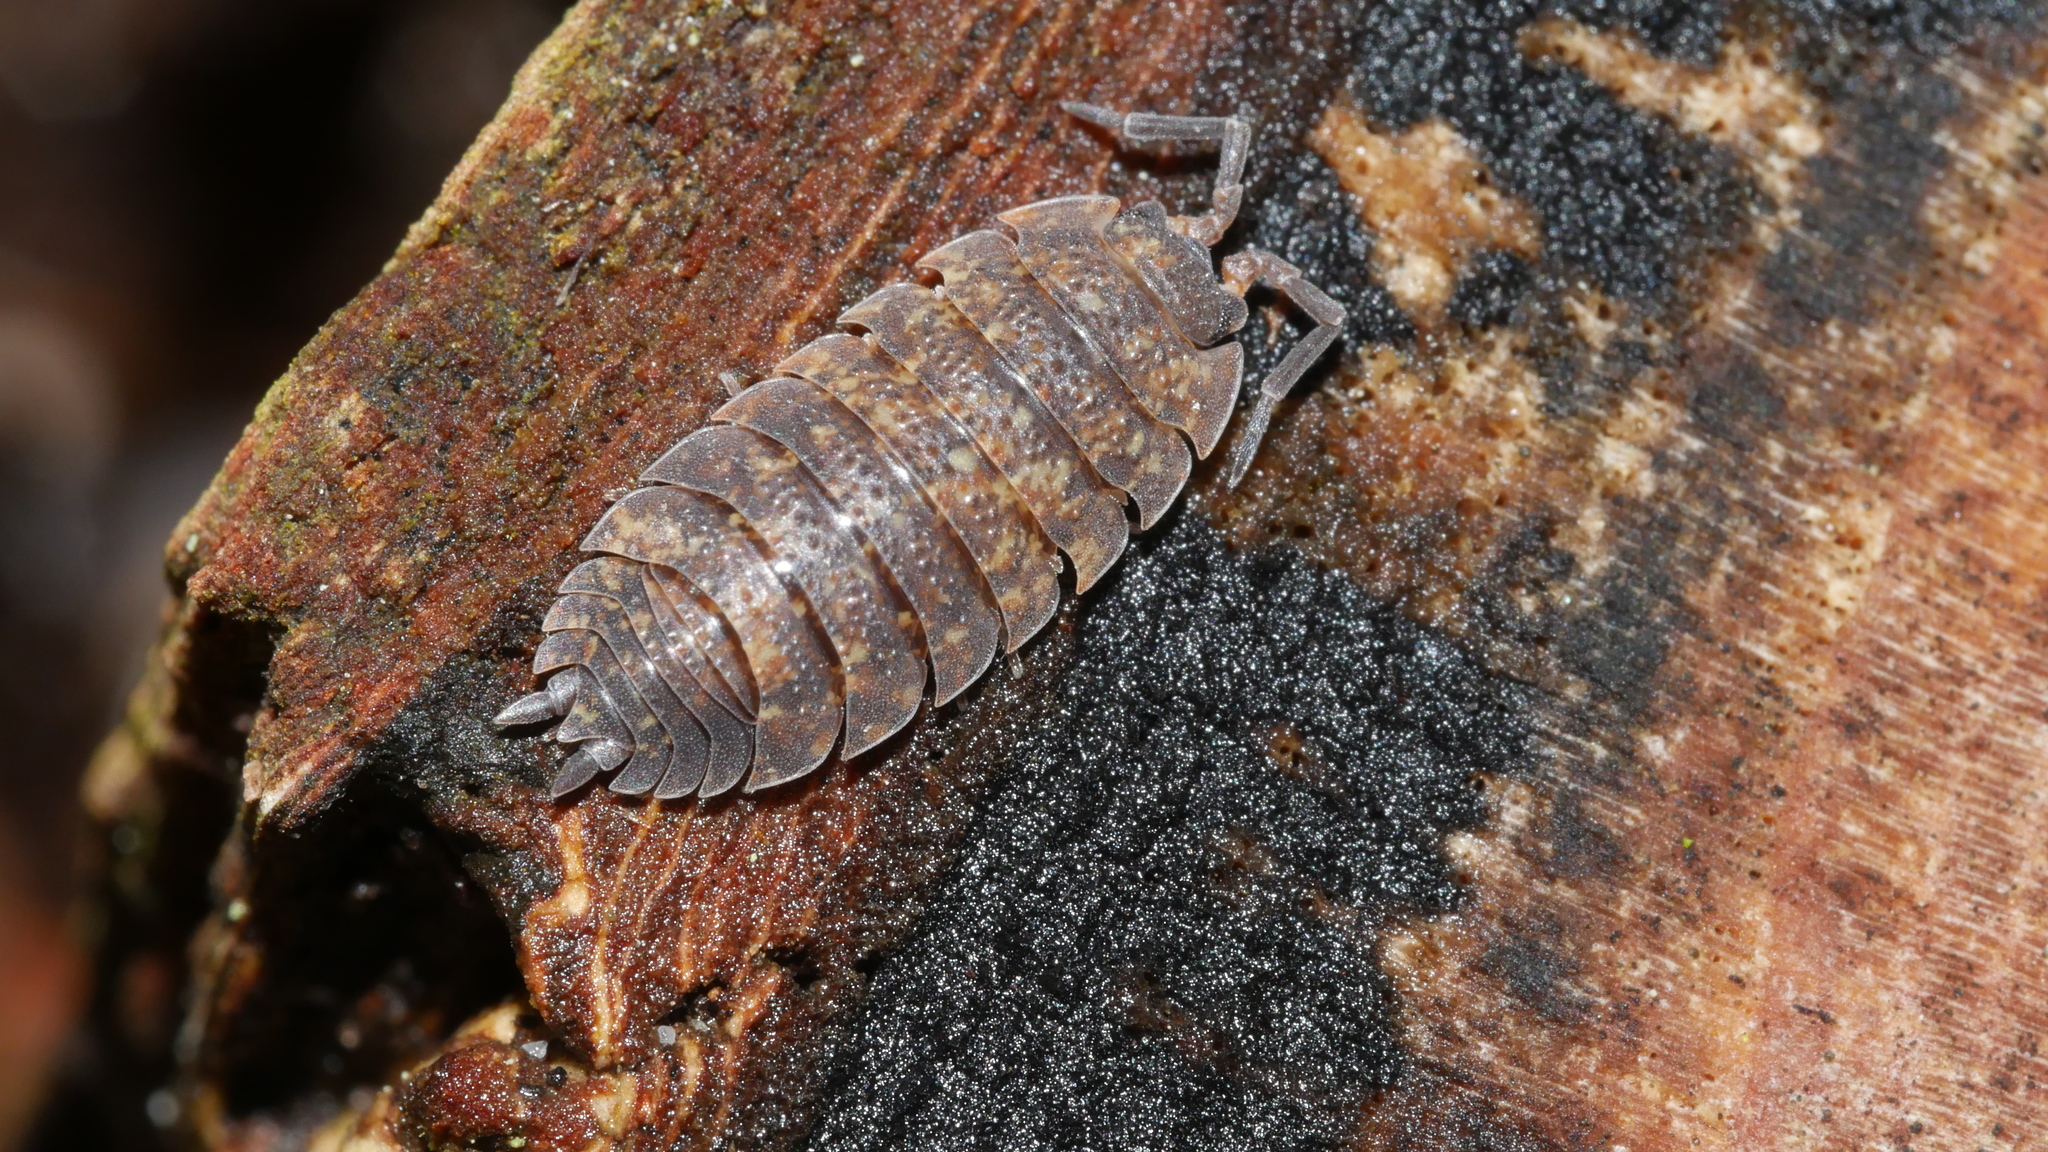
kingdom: Animalia
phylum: Arthropoda
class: Malacostraca
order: Isopoda
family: Porcellionidae
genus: Porcellio
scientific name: Porcellio scaber
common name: Common rough woodlouse
